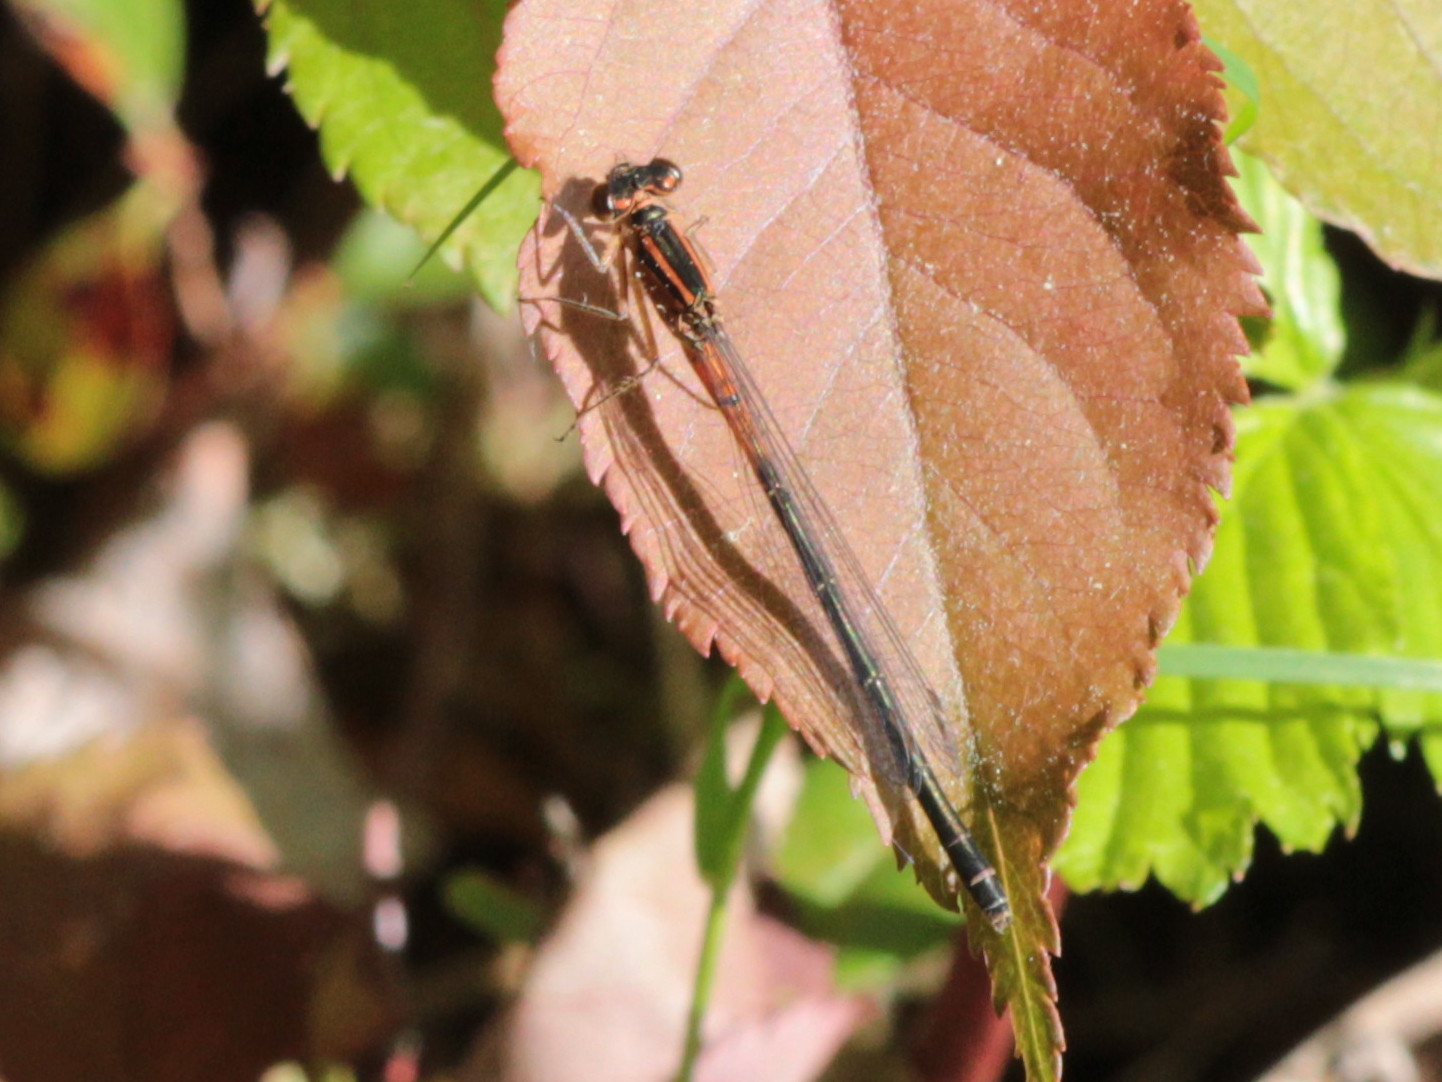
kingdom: Animalia
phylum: Arthropoda
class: Insecta
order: Odonata
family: Coenagrionidae
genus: Ischnura
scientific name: Ischnura verticalis
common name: Eastern forktail
